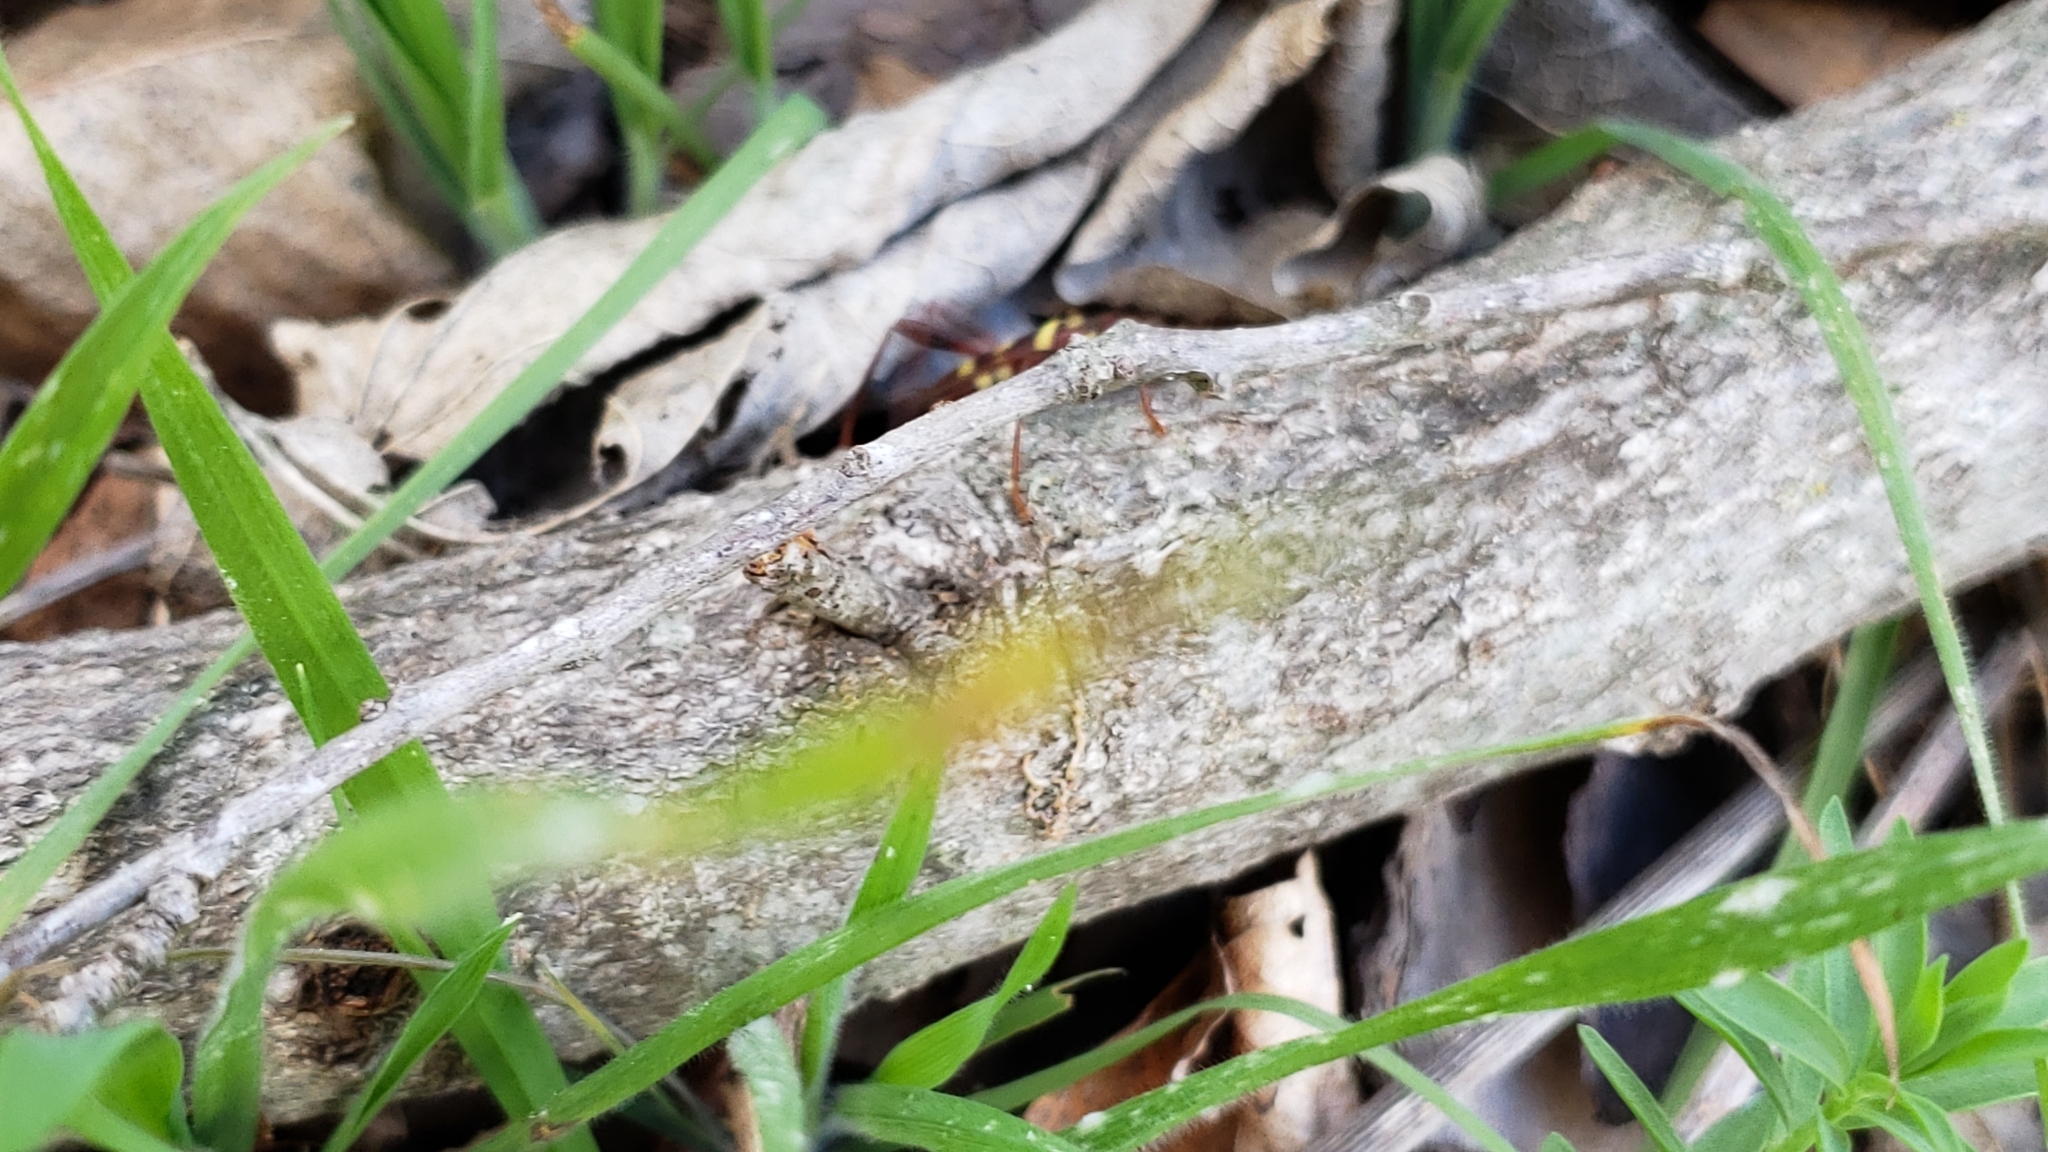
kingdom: Animalia
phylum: Arthropoda
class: Insecta
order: Coleoptera
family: Cerambycidae
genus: Neoclytus
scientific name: Neoclytus acuminatus
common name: Read-headed ash borer
